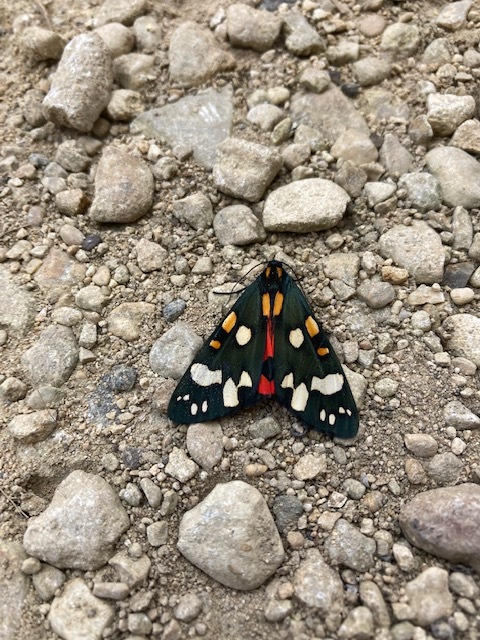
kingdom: Animalia
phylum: Arthropoda
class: Insecta
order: Lepidoptera
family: Erebidae
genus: Callimorpha
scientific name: Callimorpha dominula
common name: Scarlet tiger
